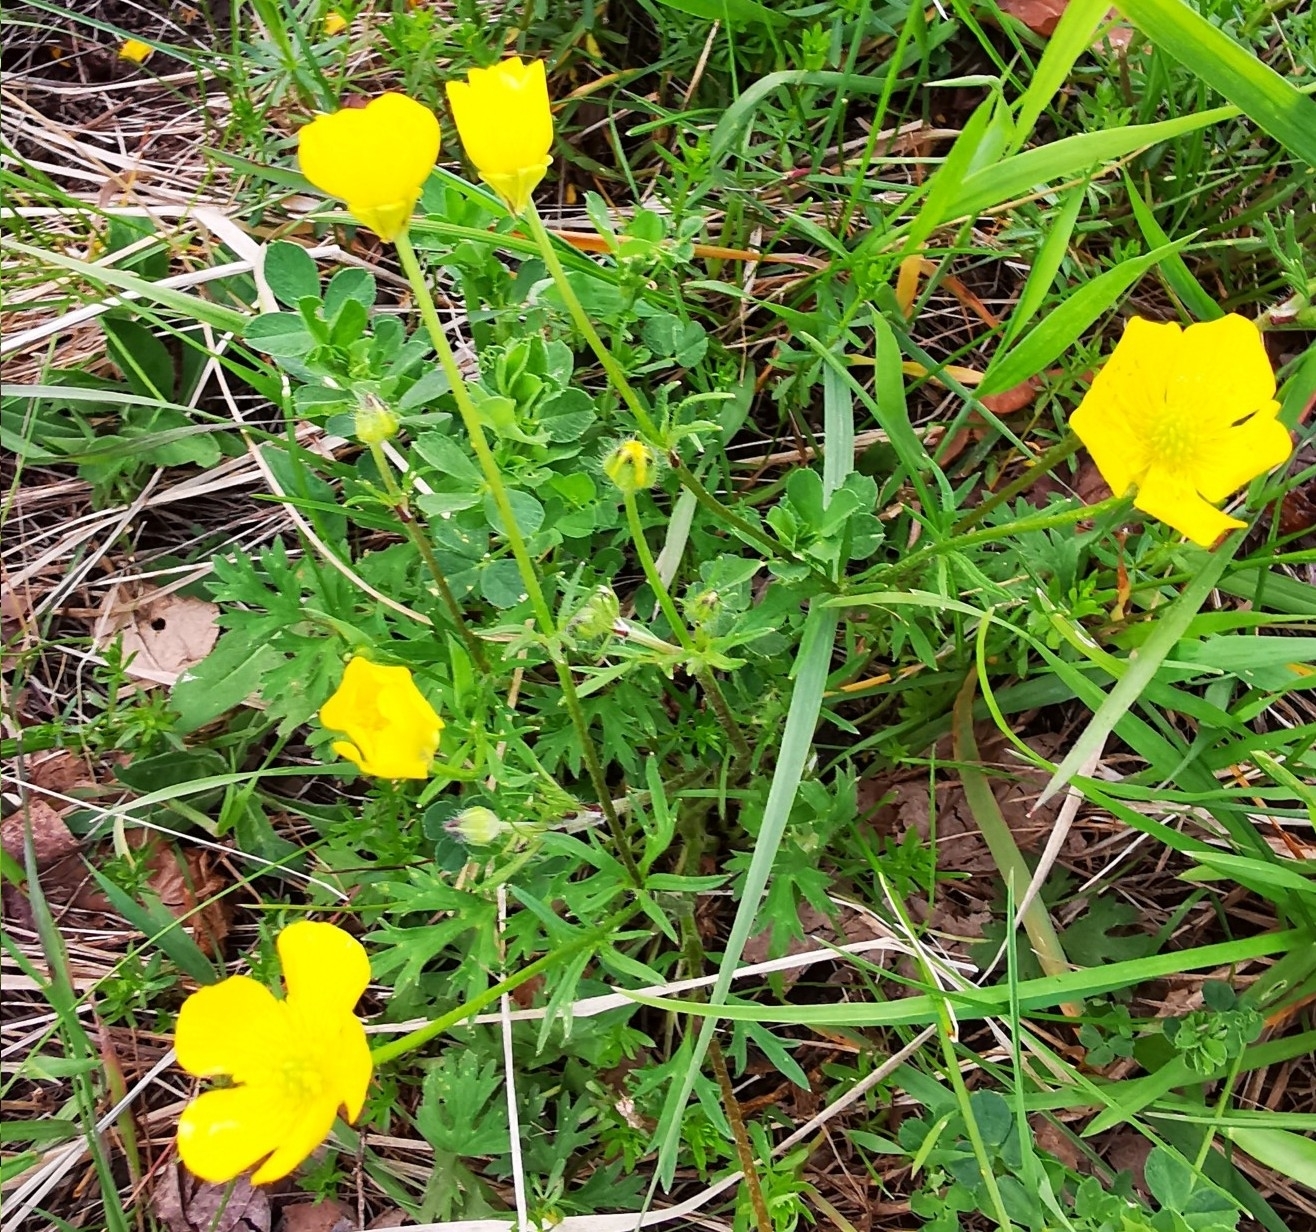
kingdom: Plantae
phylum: Tracheophyta
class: Magnoliopsida
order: Ranunculales
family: Ranunculaceae
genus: Ranunculus
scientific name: Ranunculus bulbosus
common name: Bulbous buttercup
